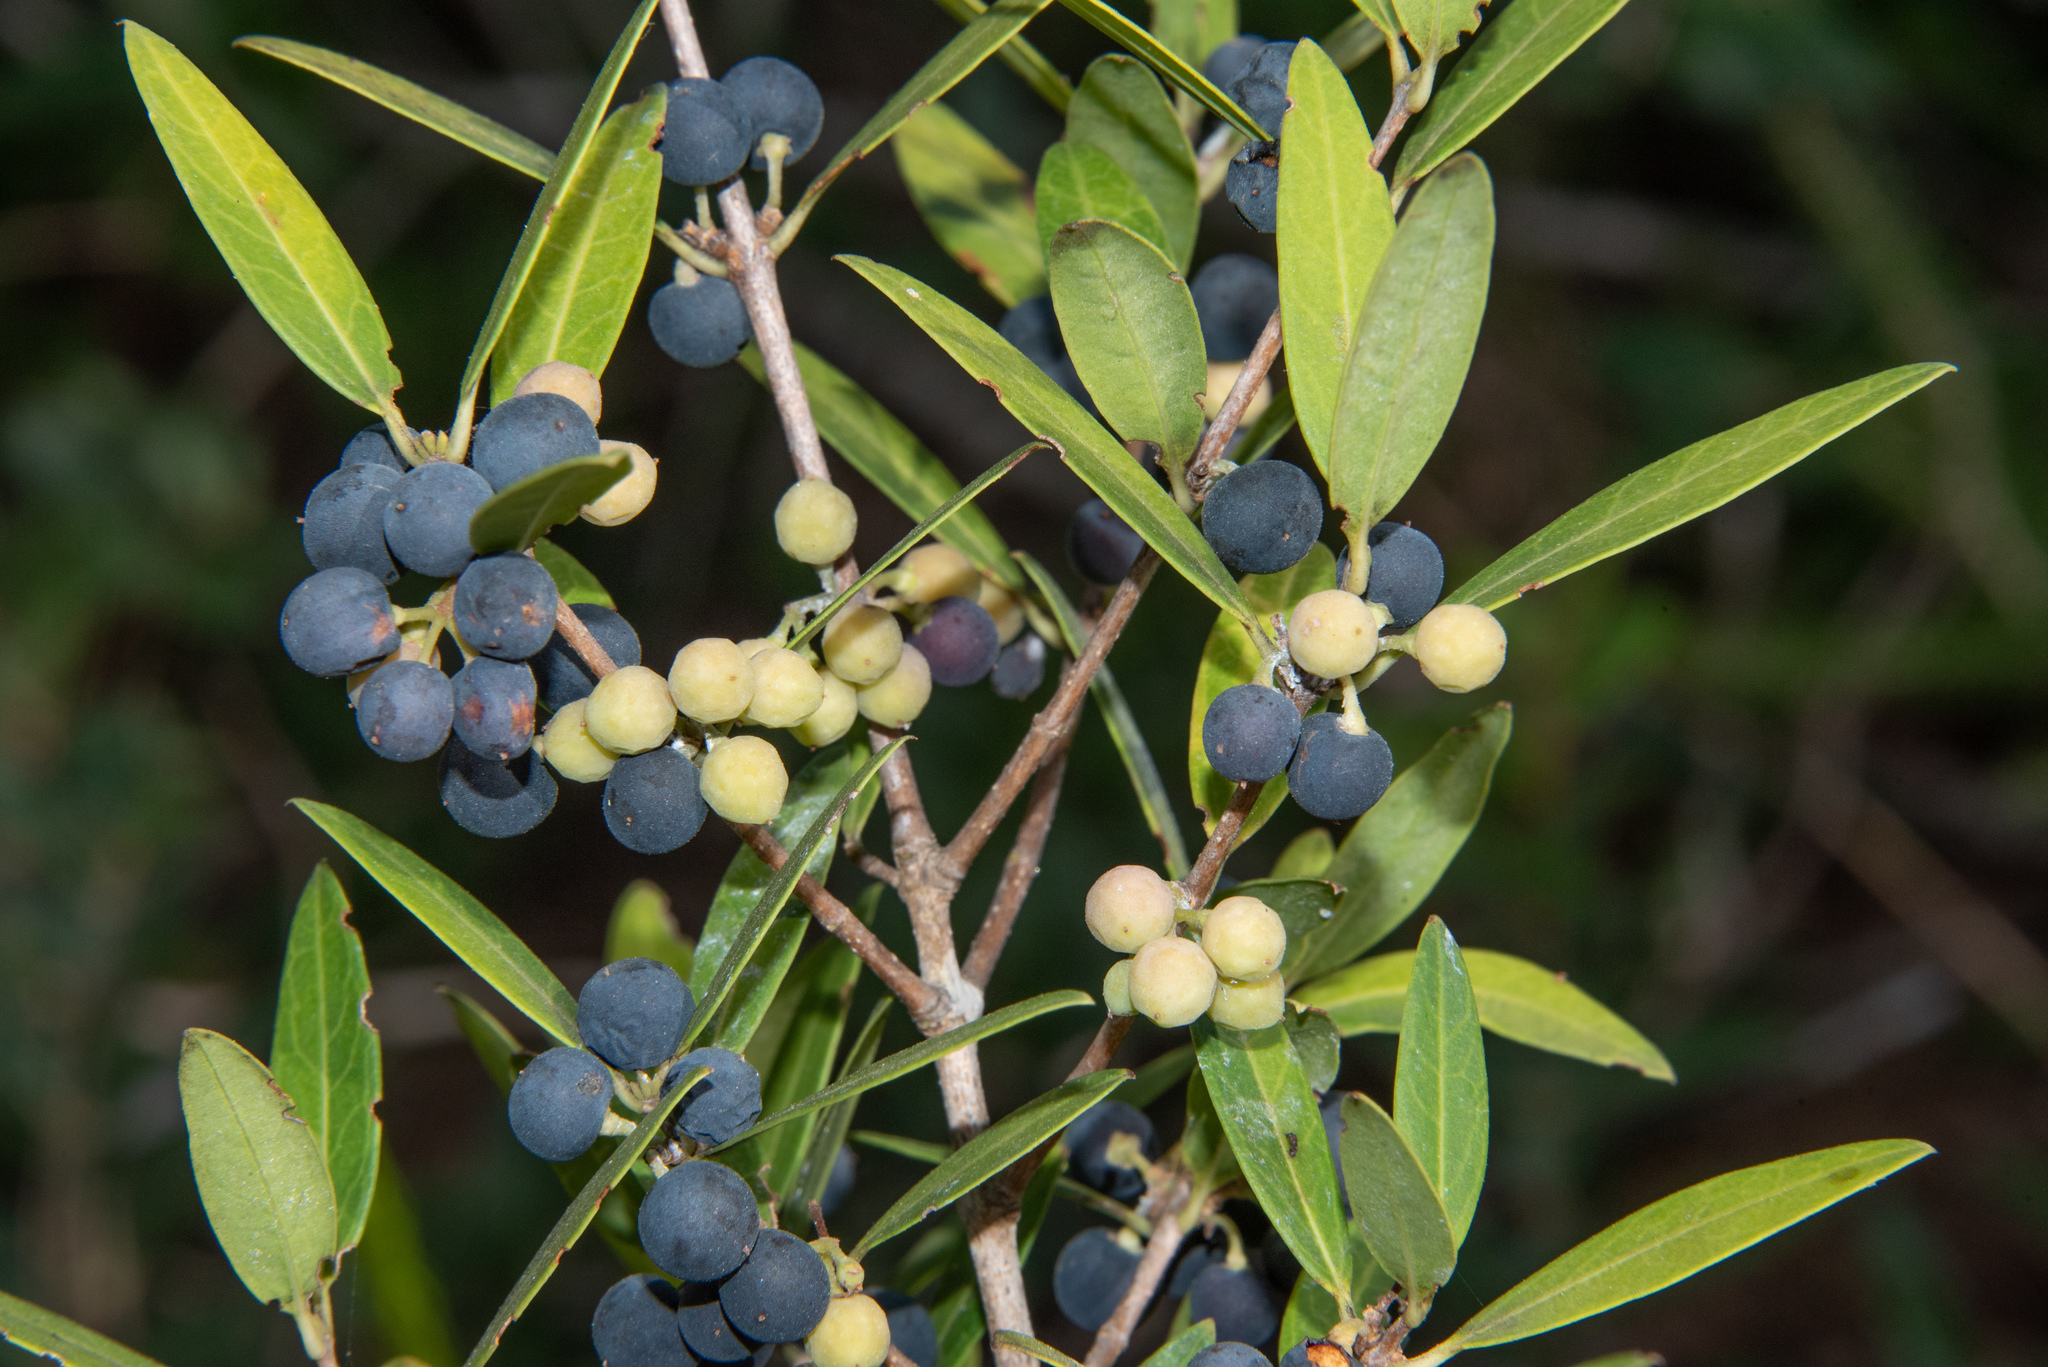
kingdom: Plantae
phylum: Tracheophyta
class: Magnoliopsida
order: Lamiales
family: Oleaceae
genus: Phillyrea
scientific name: Phillyrea latifolia
